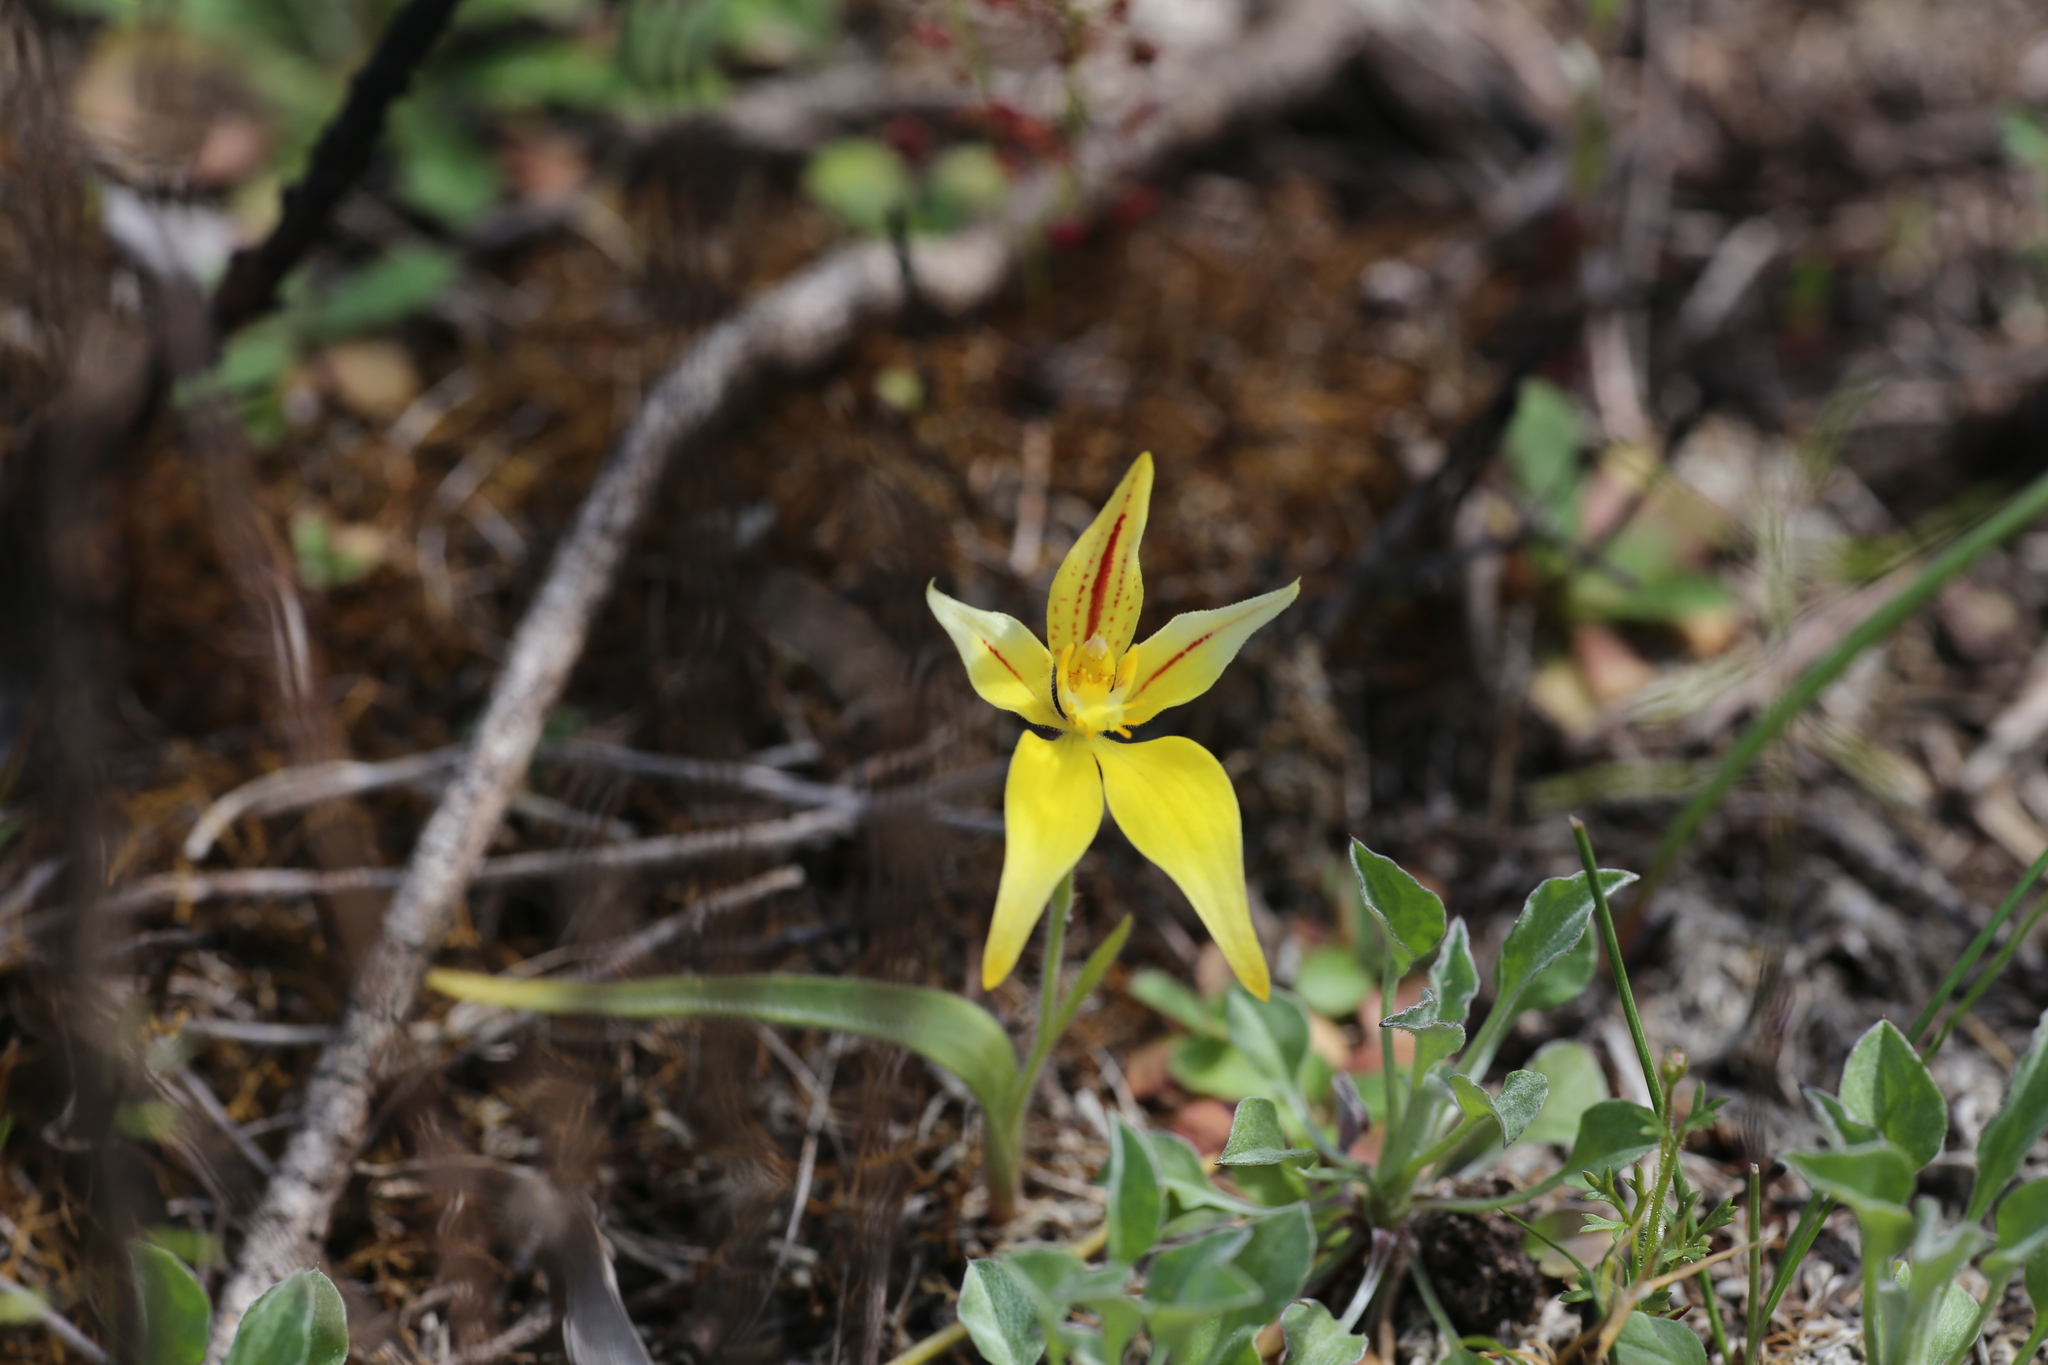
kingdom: Plantae
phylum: Tracheophyta
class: Liliopsida
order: Asparagales
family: Orchidaceae
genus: Caladenia
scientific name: Caladenia flava
